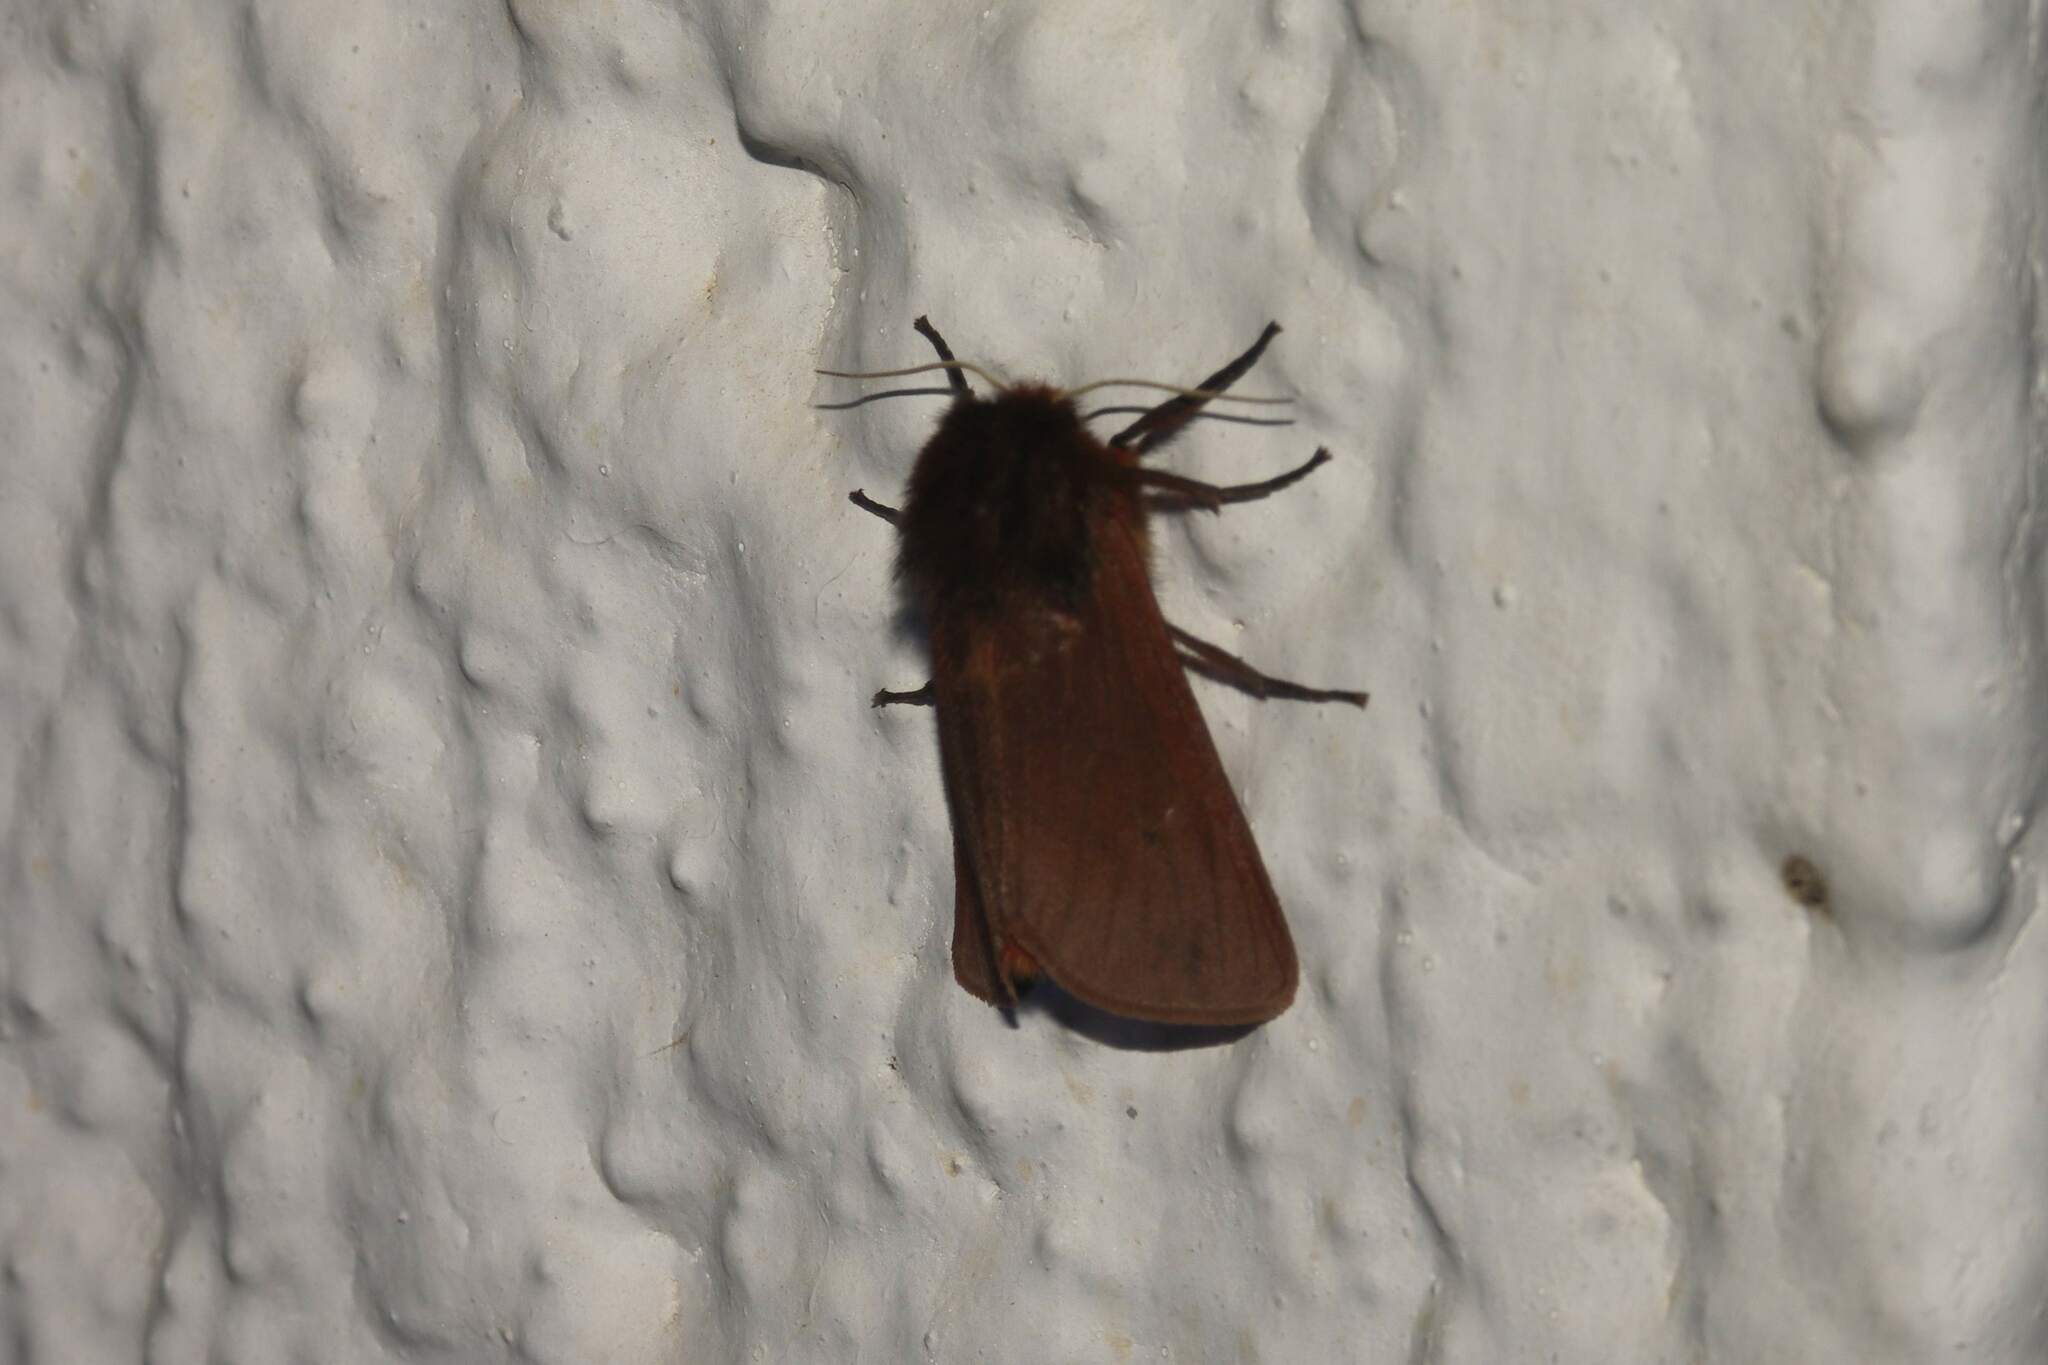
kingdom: Animalia
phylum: Arthropoda
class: Insecta
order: Lepidoptera
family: Erebidae
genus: Phragmatobia
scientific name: Phragmatobia fuliginosa
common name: Ruby tiger
